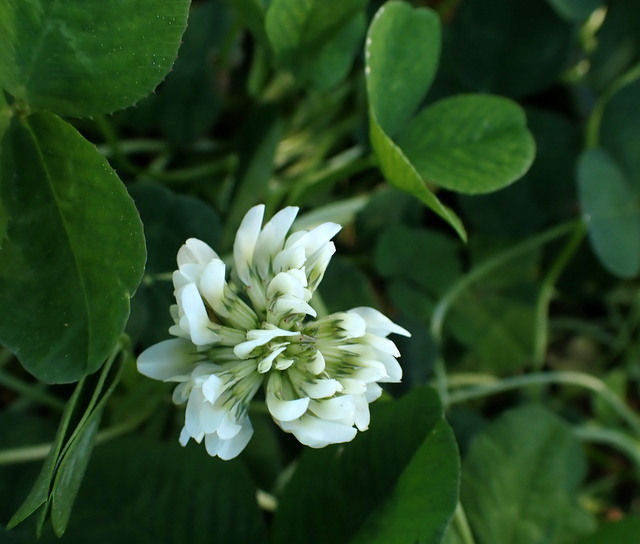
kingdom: Plantae
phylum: Tracheophyta
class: Magnoliopsida
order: Fabales
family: Fabaceae
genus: Trifolium
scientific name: Trifolium repens
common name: White clover
